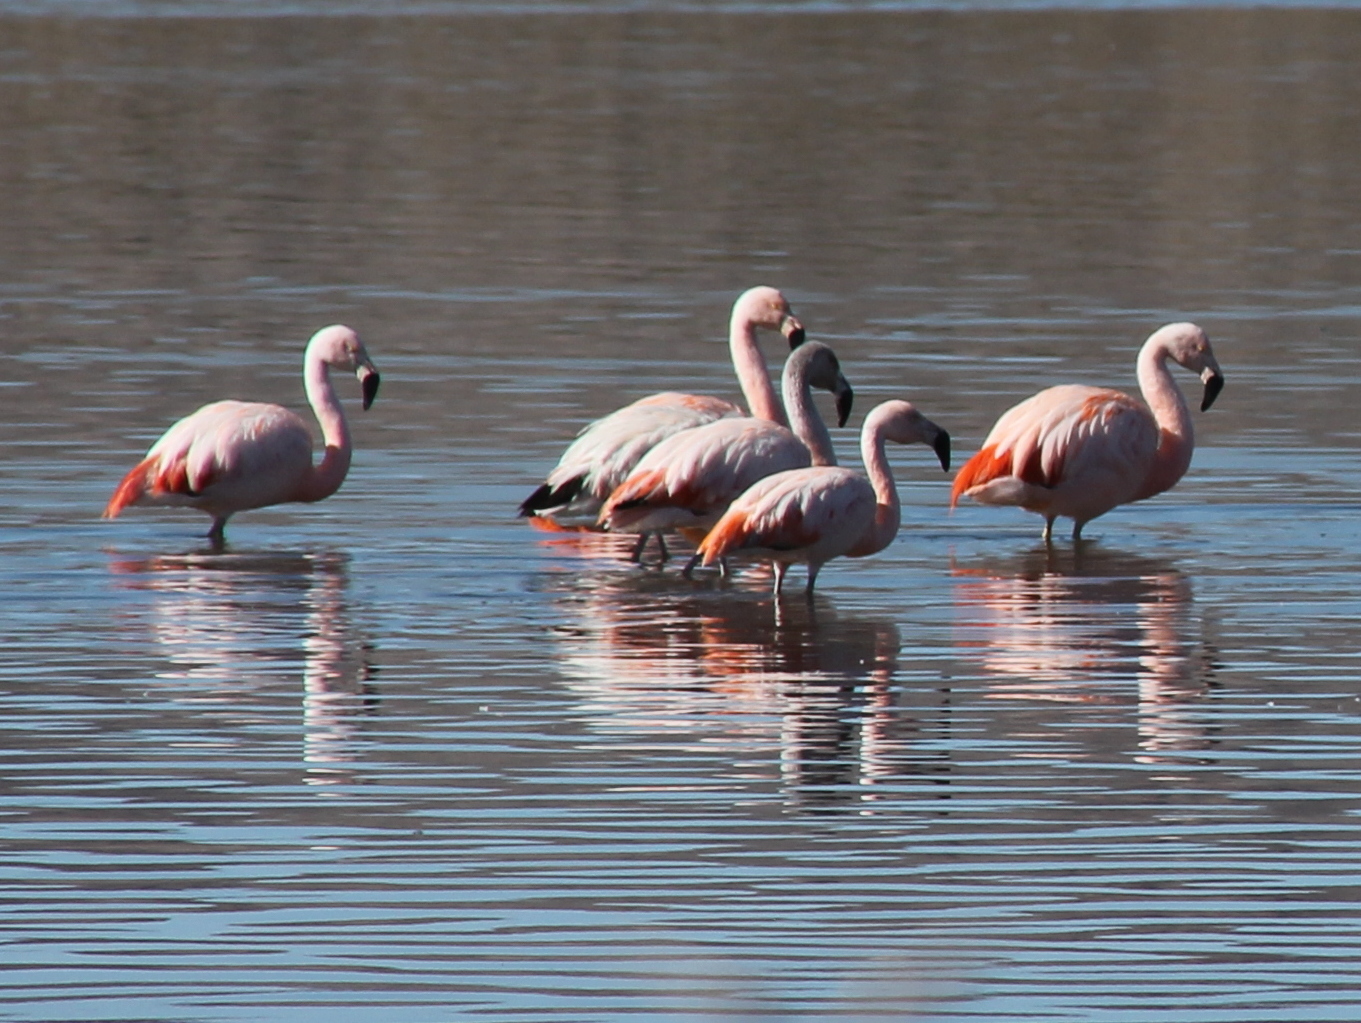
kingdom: Animalia
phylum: Chordata
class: Aves
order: Phoenicopteriformes
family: Phoenicopteridae
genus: Phoenicopterus
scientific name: Phoenicopterus chilensis
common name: Chilean flamingo
